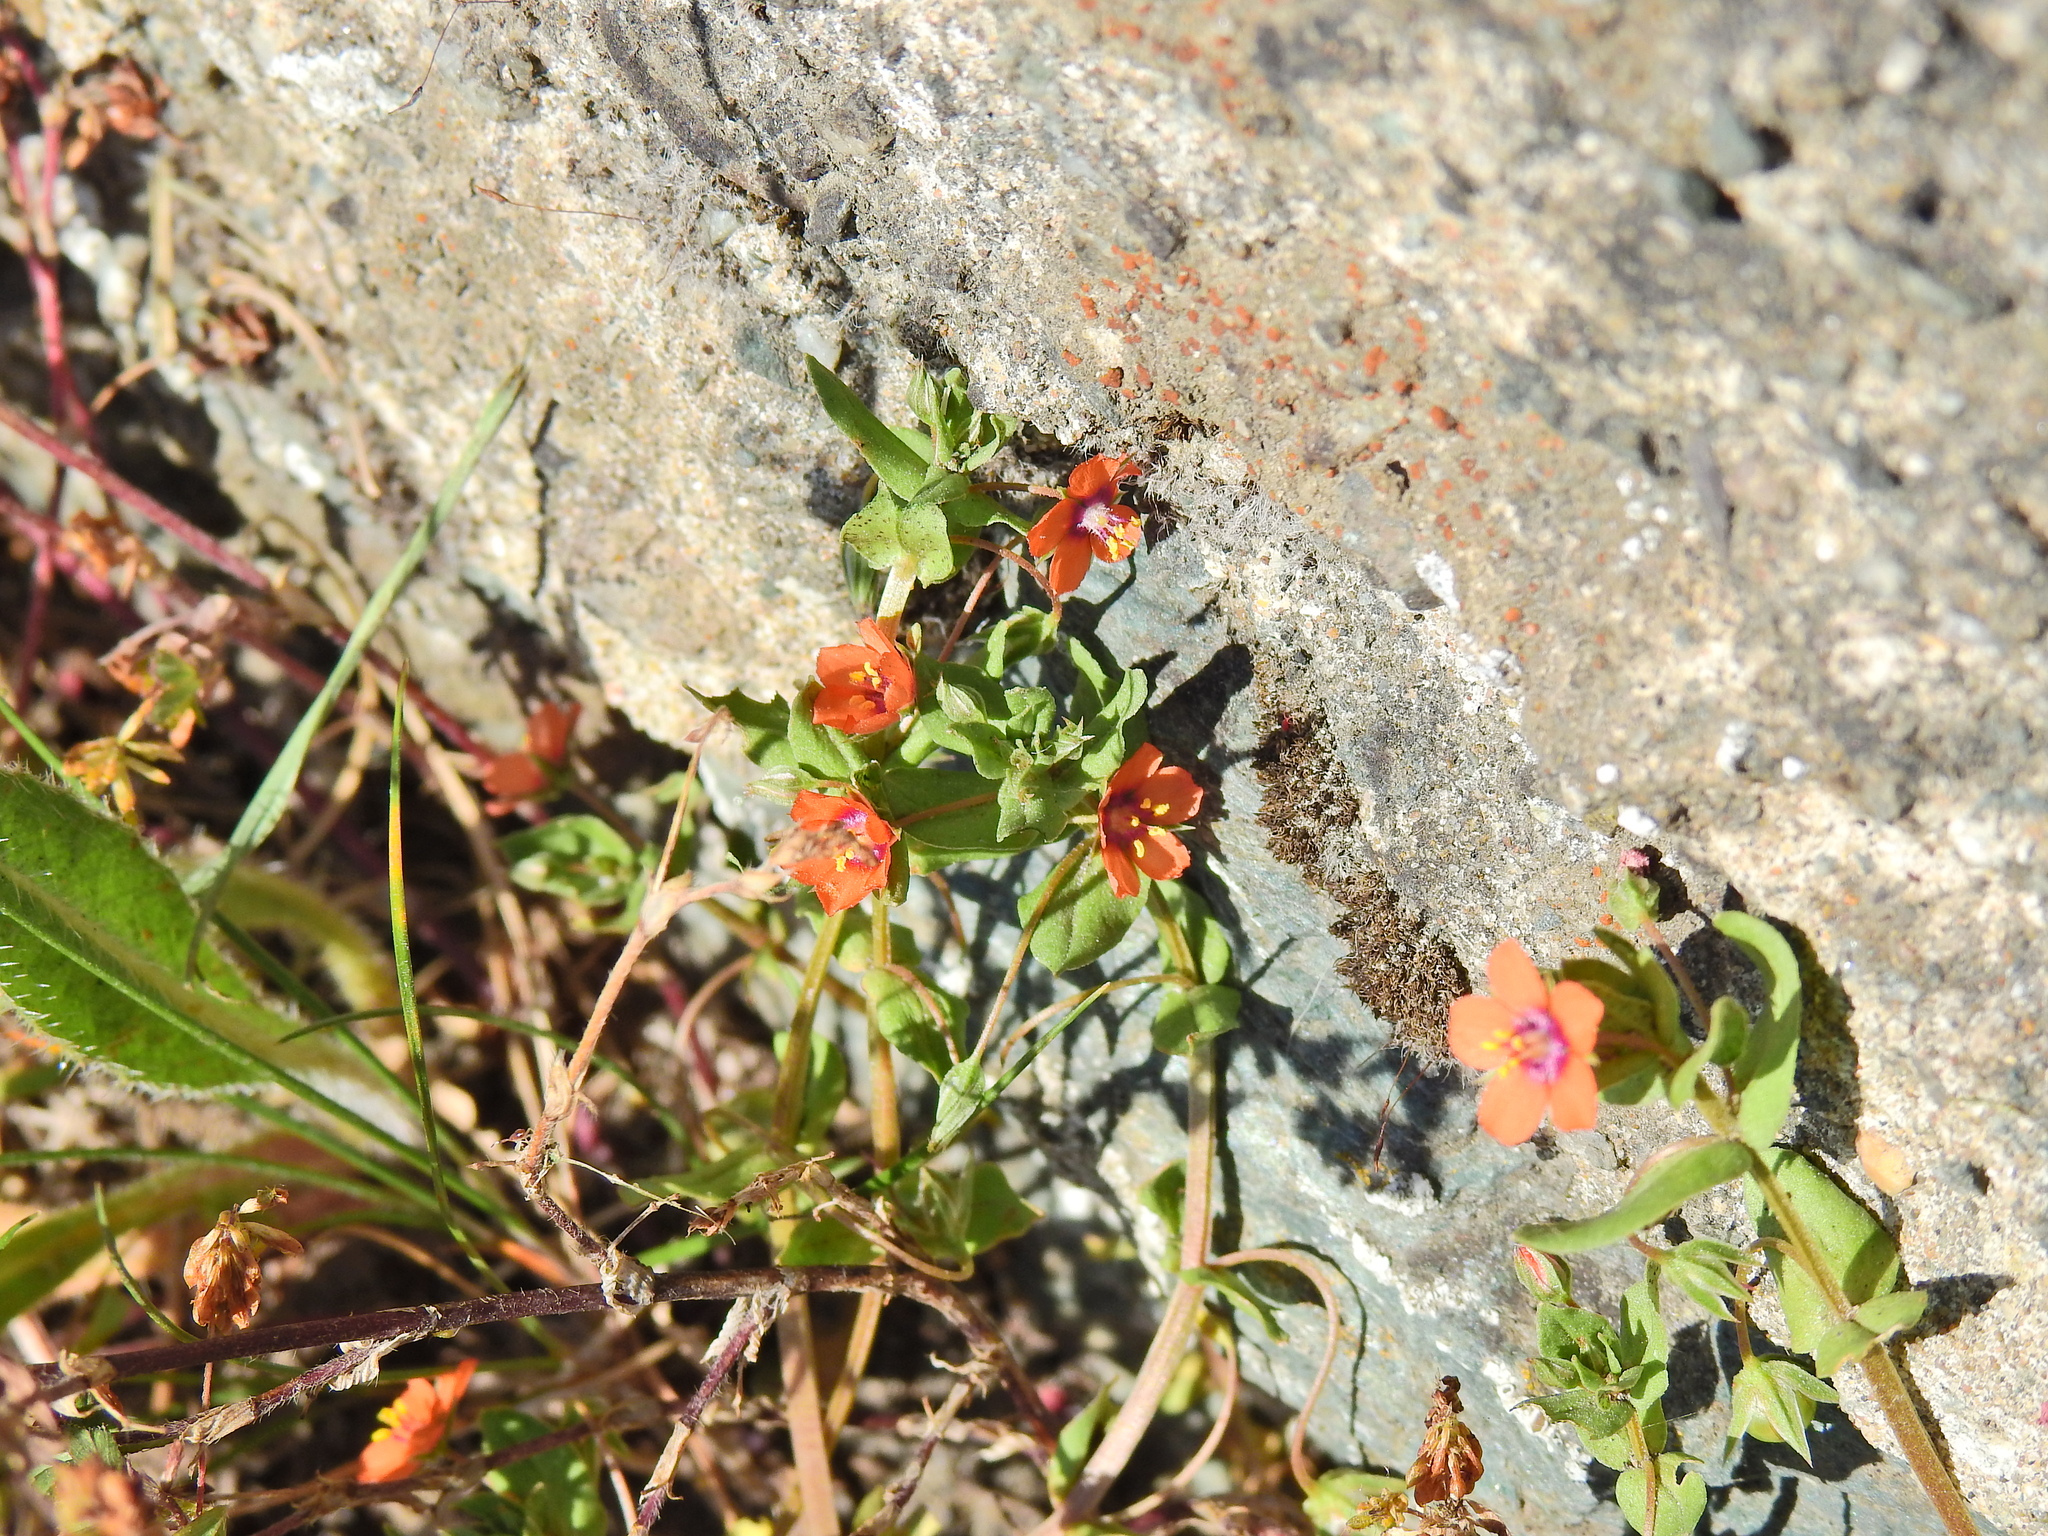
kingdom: Plantae
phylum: Tracheophyta
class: Magnoliopsida
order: Ericales
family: Primulaceae
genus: Lysimachia
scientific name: Lysimachia arvensis
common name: Scarlet pimpernel
